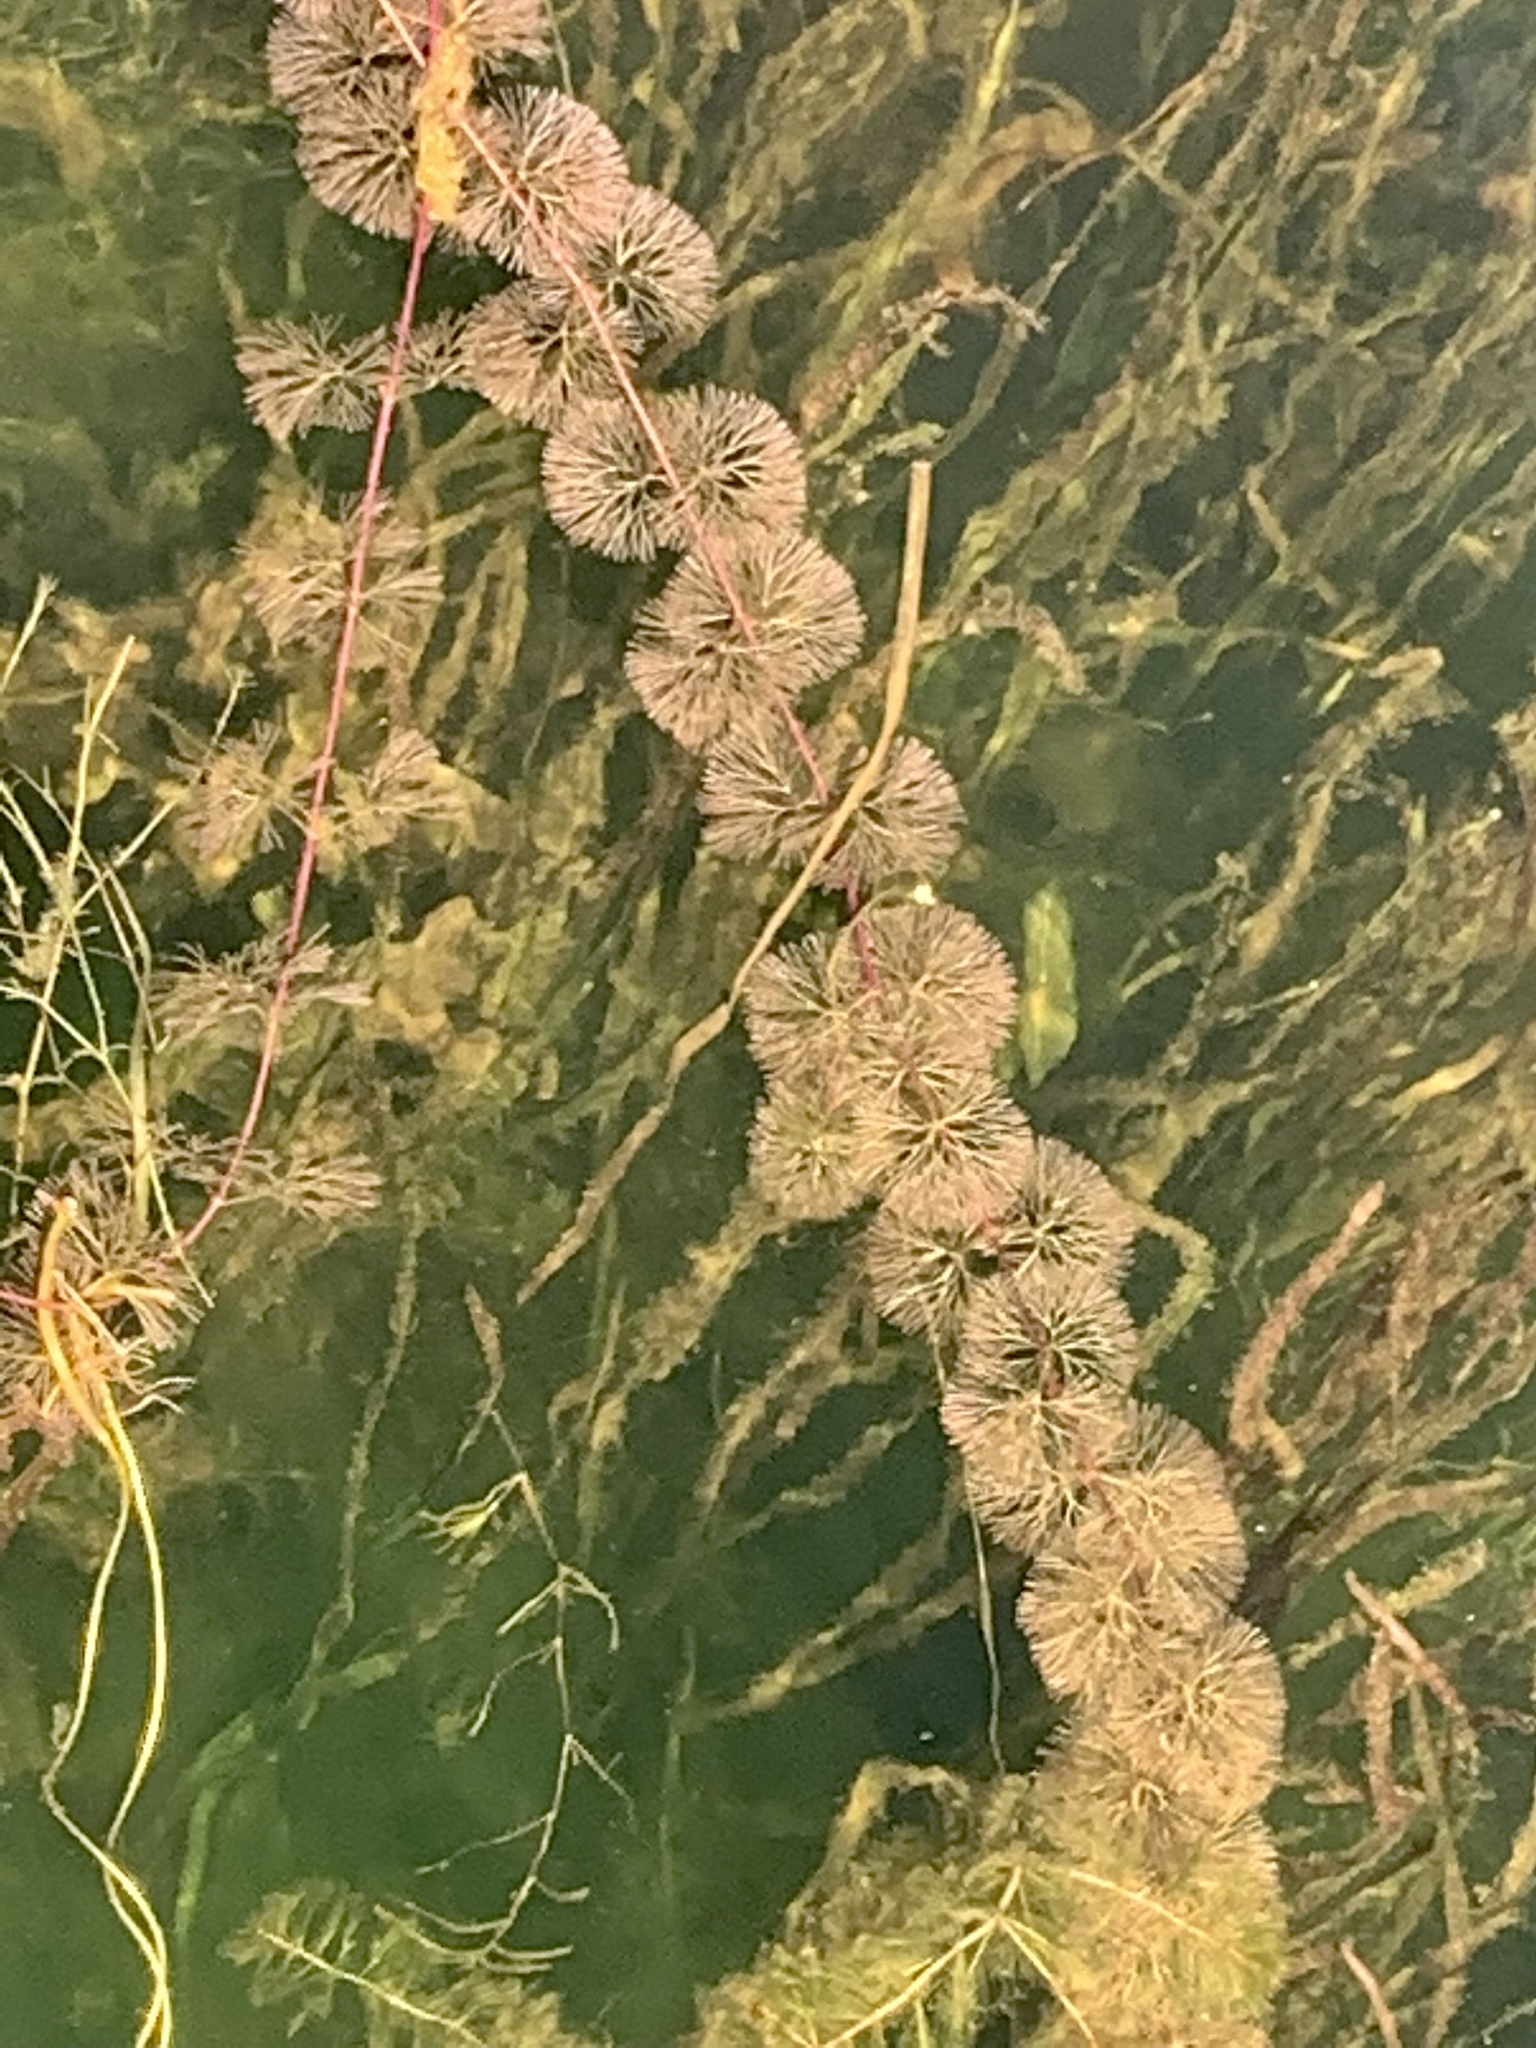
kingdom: Plantae
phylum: Tracheophyta
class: Magnoliopsida
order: Nymphaeales
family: Cabombaceae
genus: Cabomba
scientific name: Cabomba caroliniana
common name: Fanwort
